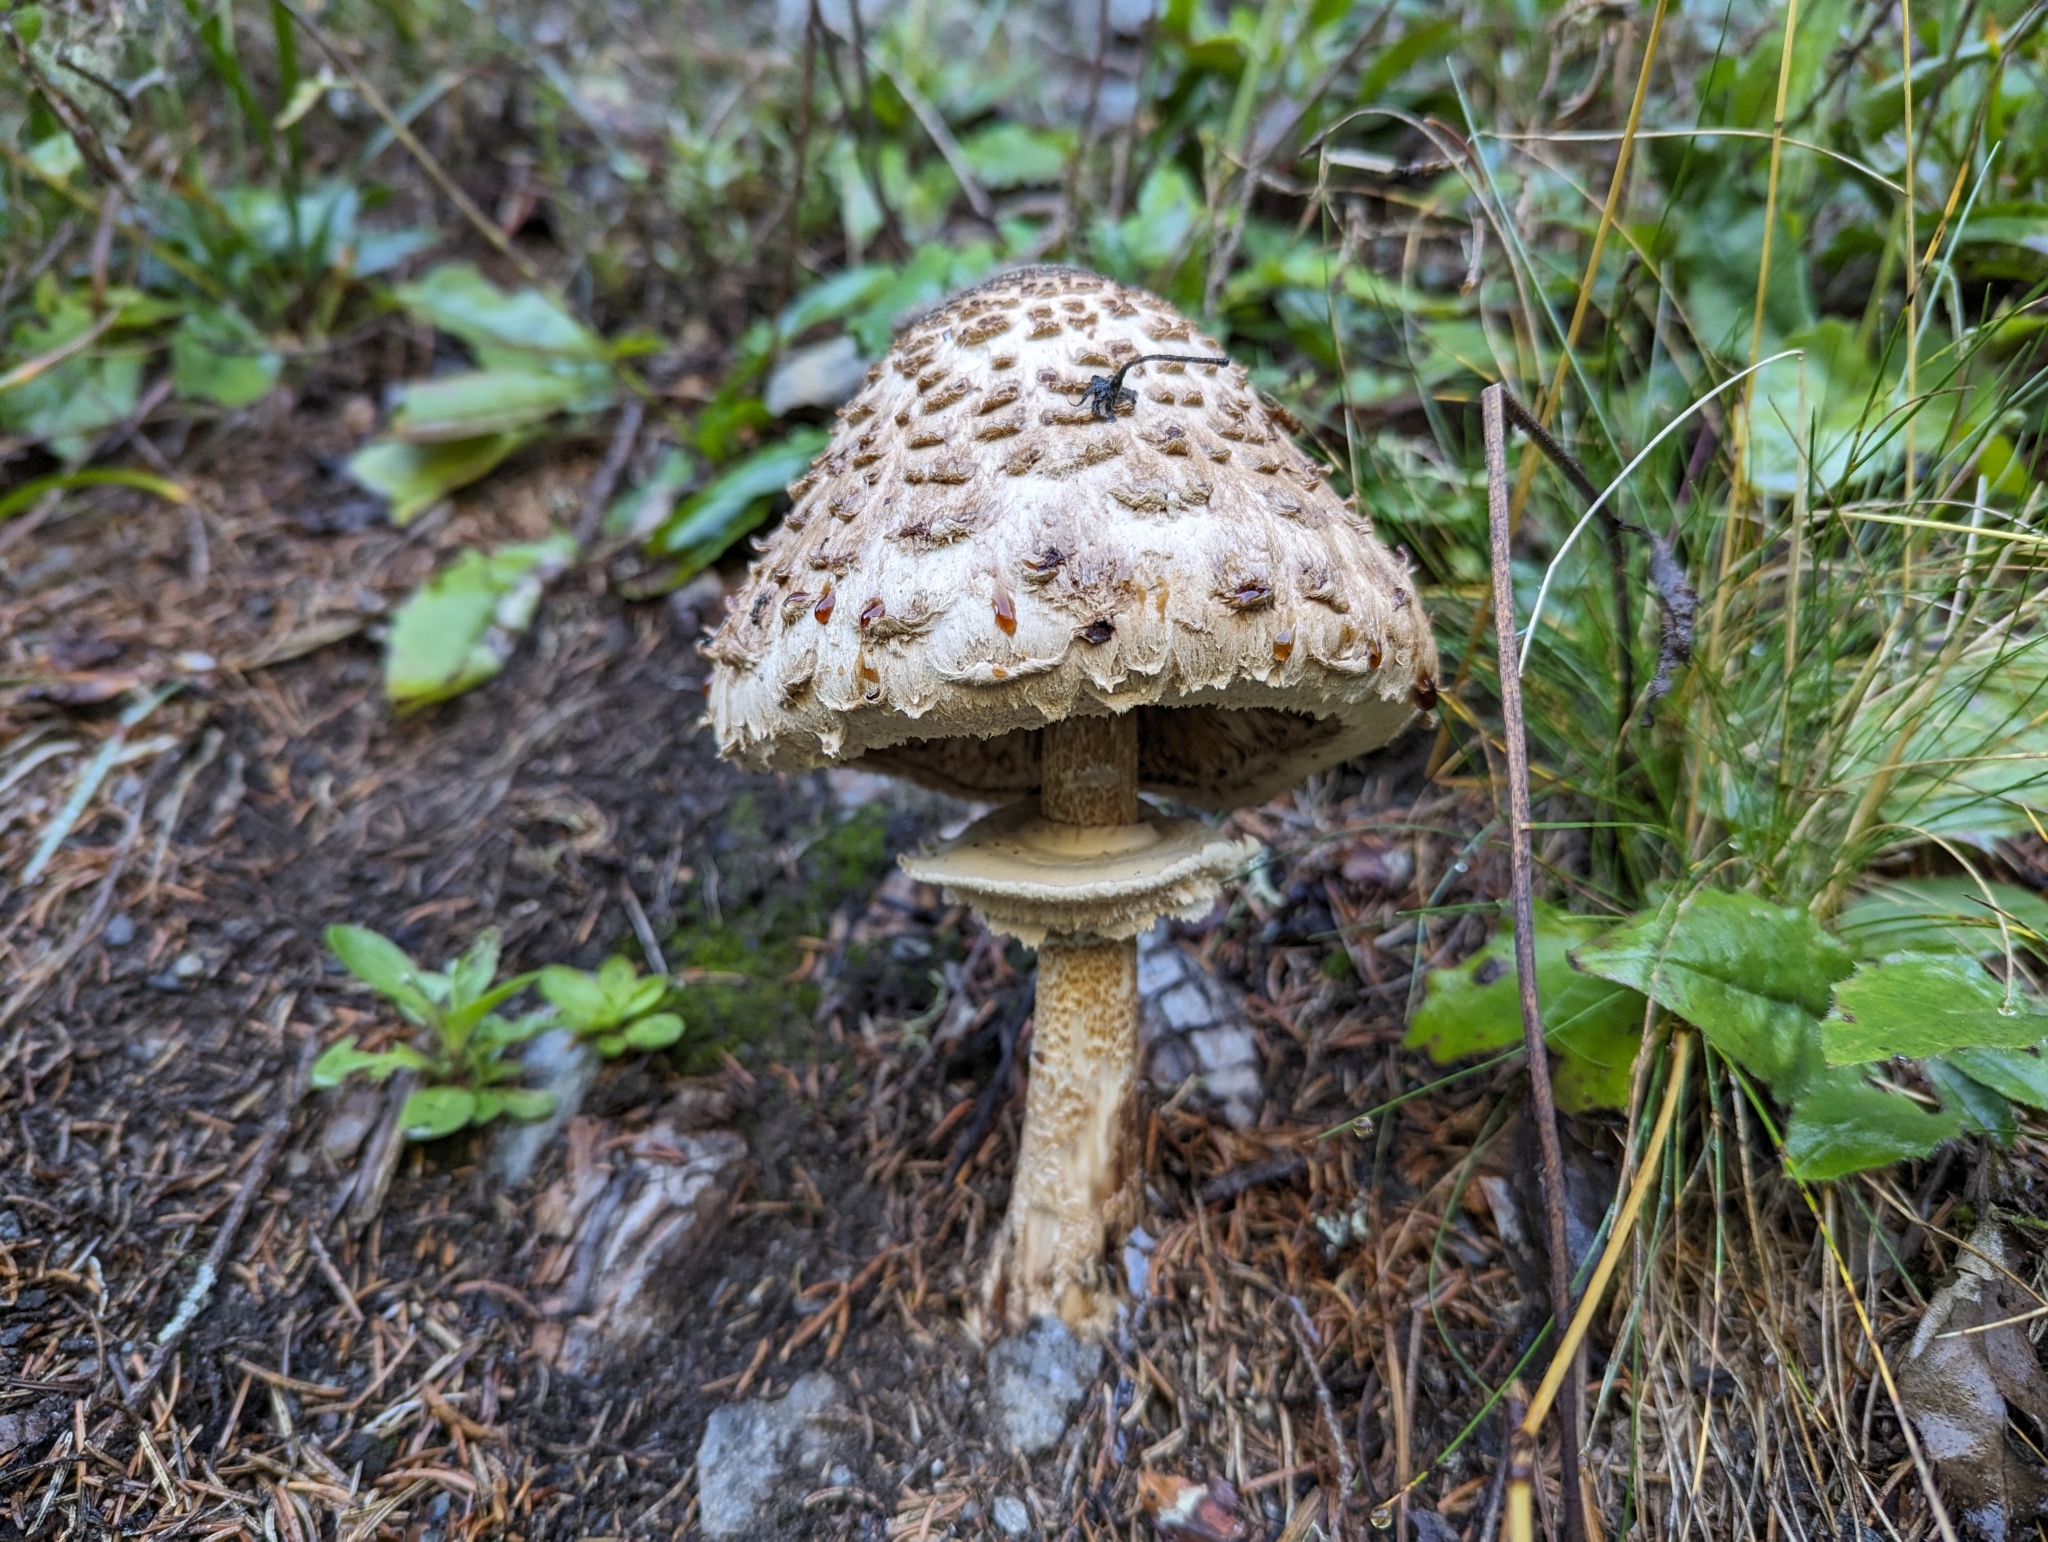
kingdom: Fungi
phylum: Basidiomycota
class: Agaricomycetes
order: Agaricales
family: Agaricaceae
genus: Macrolepiota
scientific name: Macrolepiota procera
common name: Parasol
